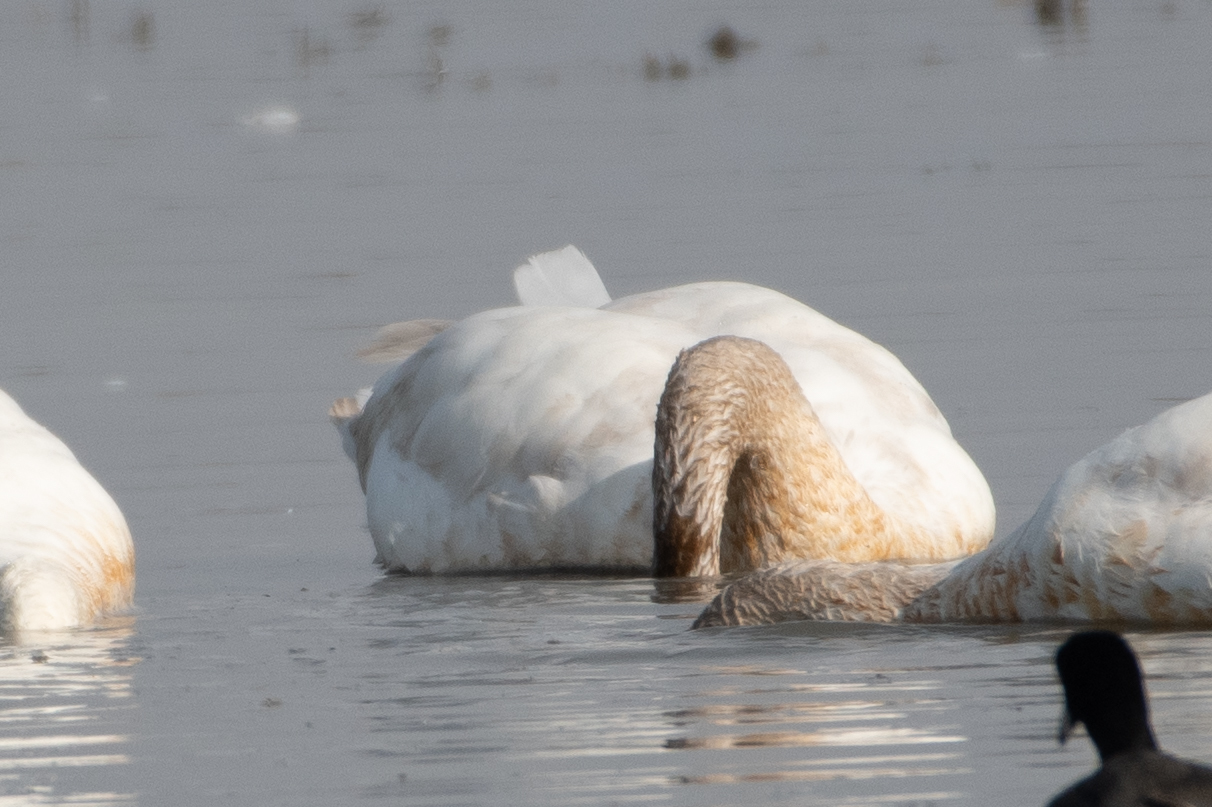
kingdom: Animalia
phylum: Chordata
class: Aves
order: Anseriformes
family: Anatidae
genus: Cygnus
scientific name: Cygnus buccinator
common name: Trumpeter swan
